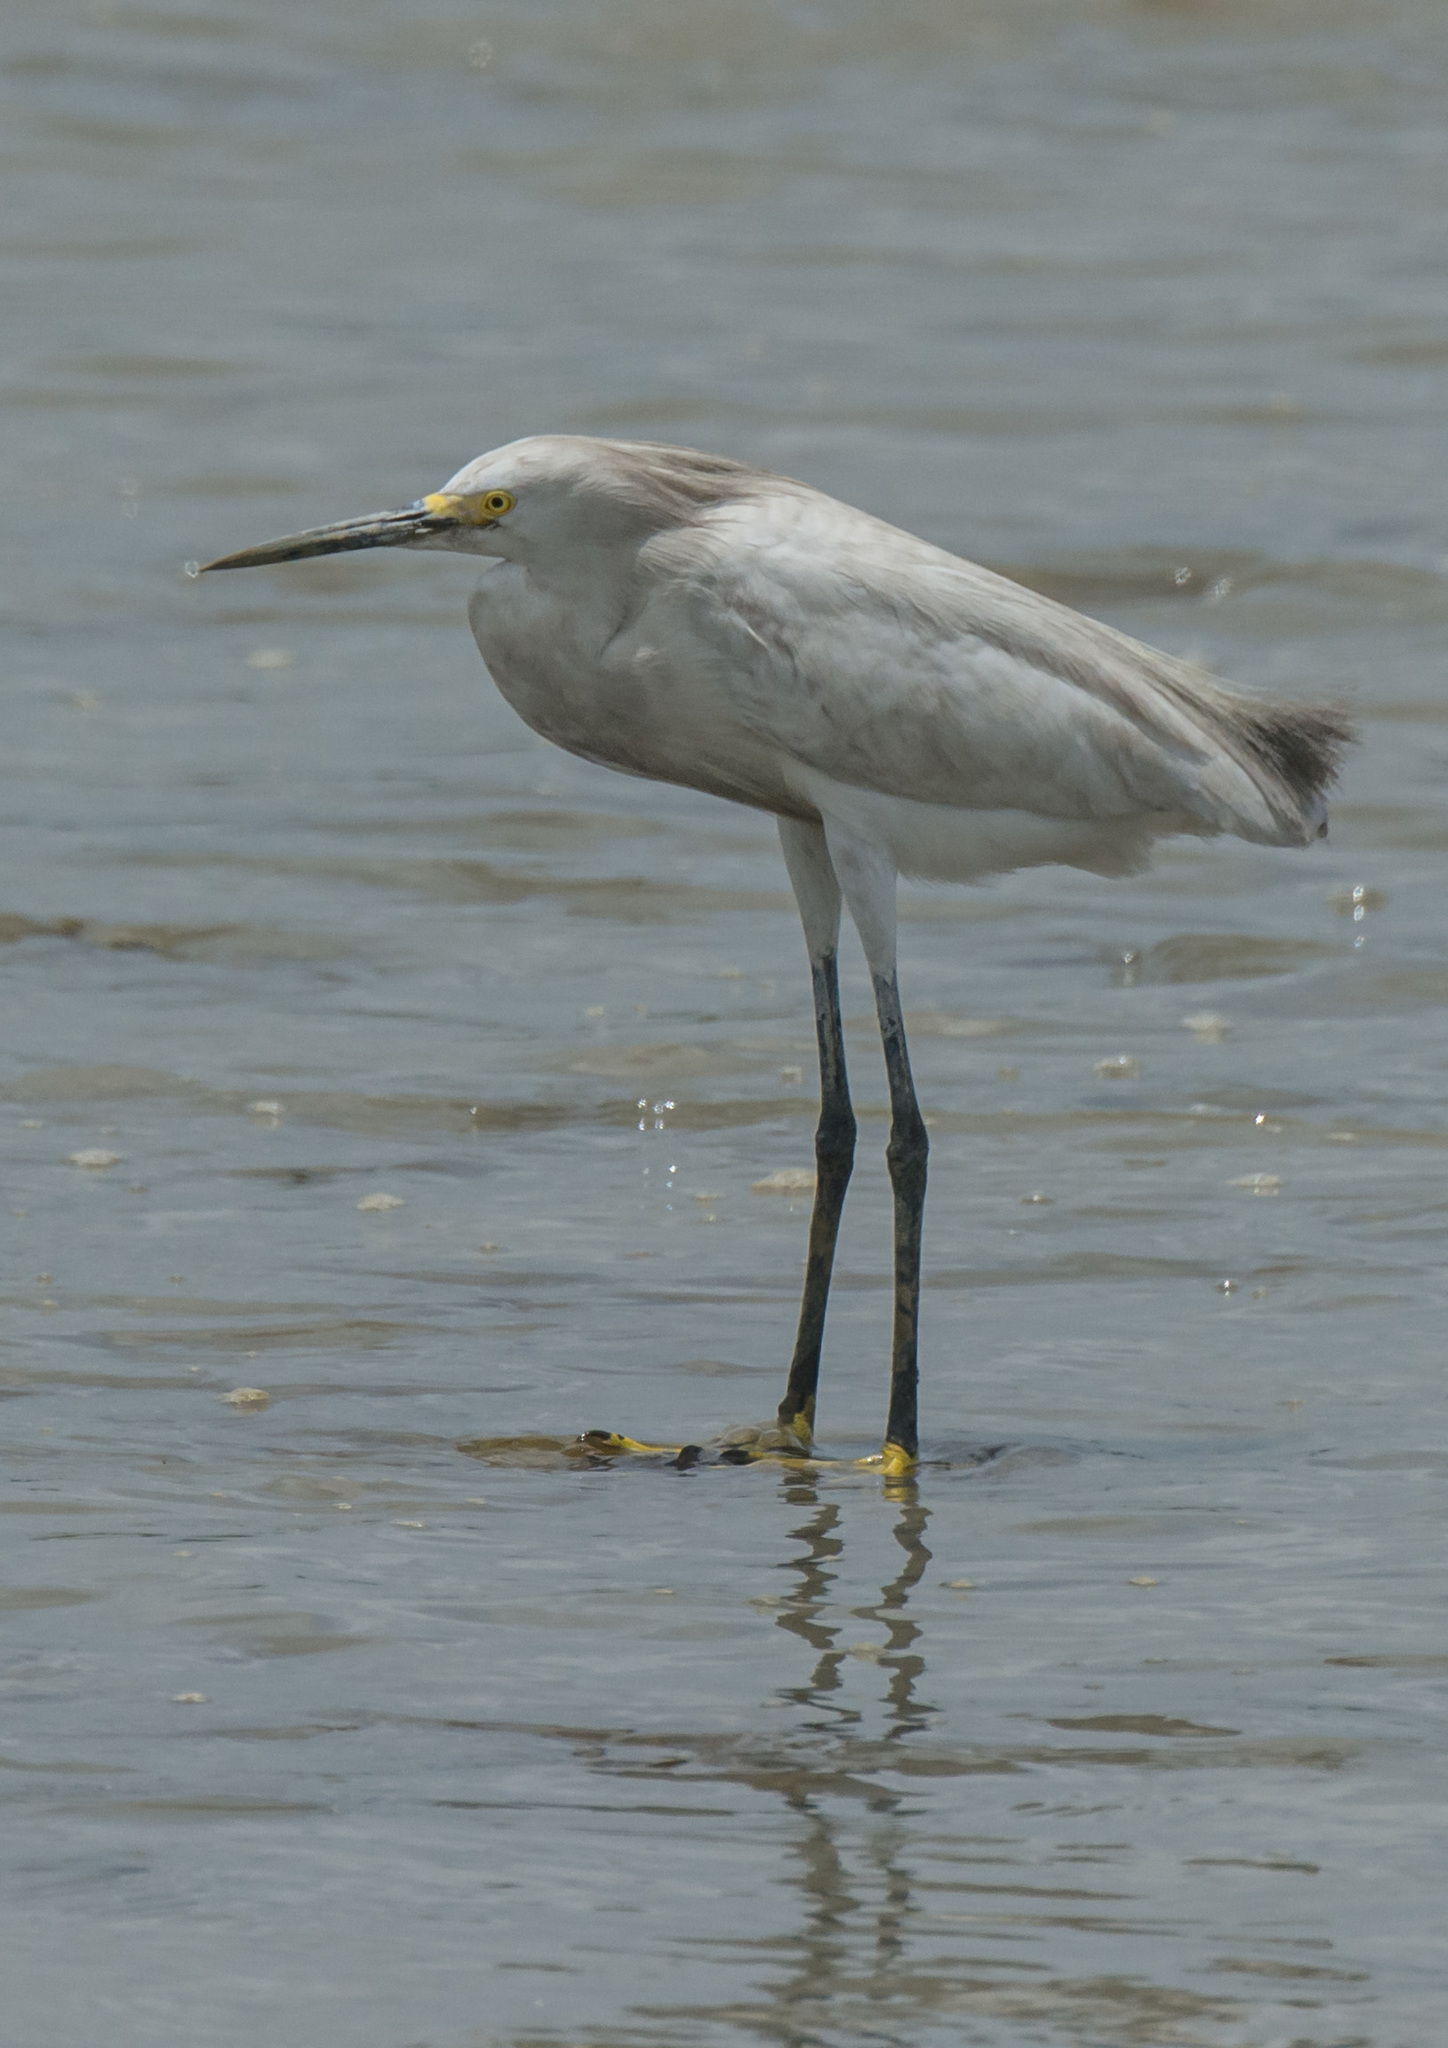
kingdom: Animalia
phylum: Chordata
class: Aves
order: Pelecaniformes
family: Ardeidae
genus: Egretta
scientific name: Egretta thula
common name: Snowy egret
